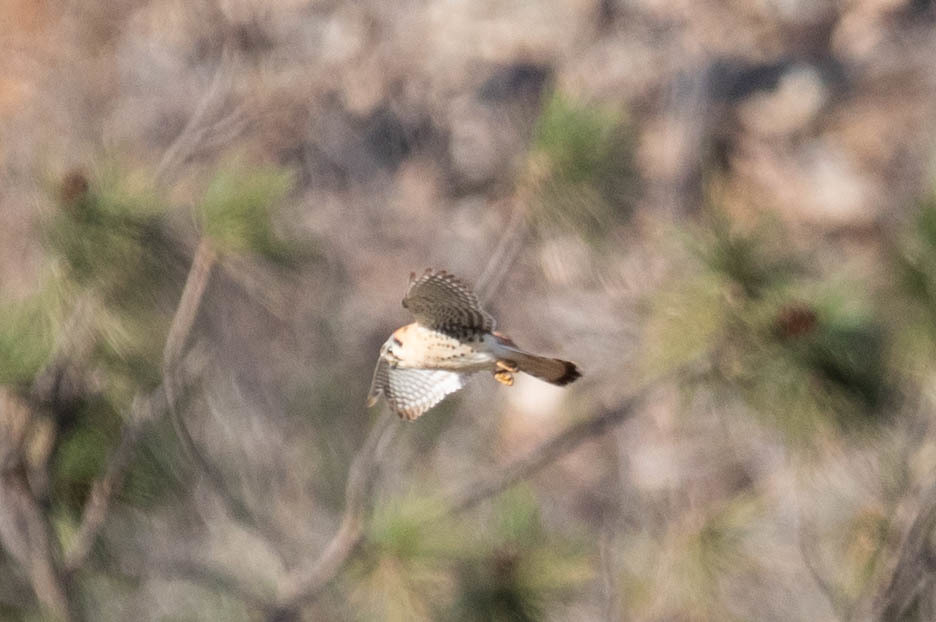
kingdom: Animalia
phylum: Chordata
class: Aves
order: Falconiformes
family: Falconidae
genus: Falco
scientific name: Falco sparverius
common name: American kestrel
